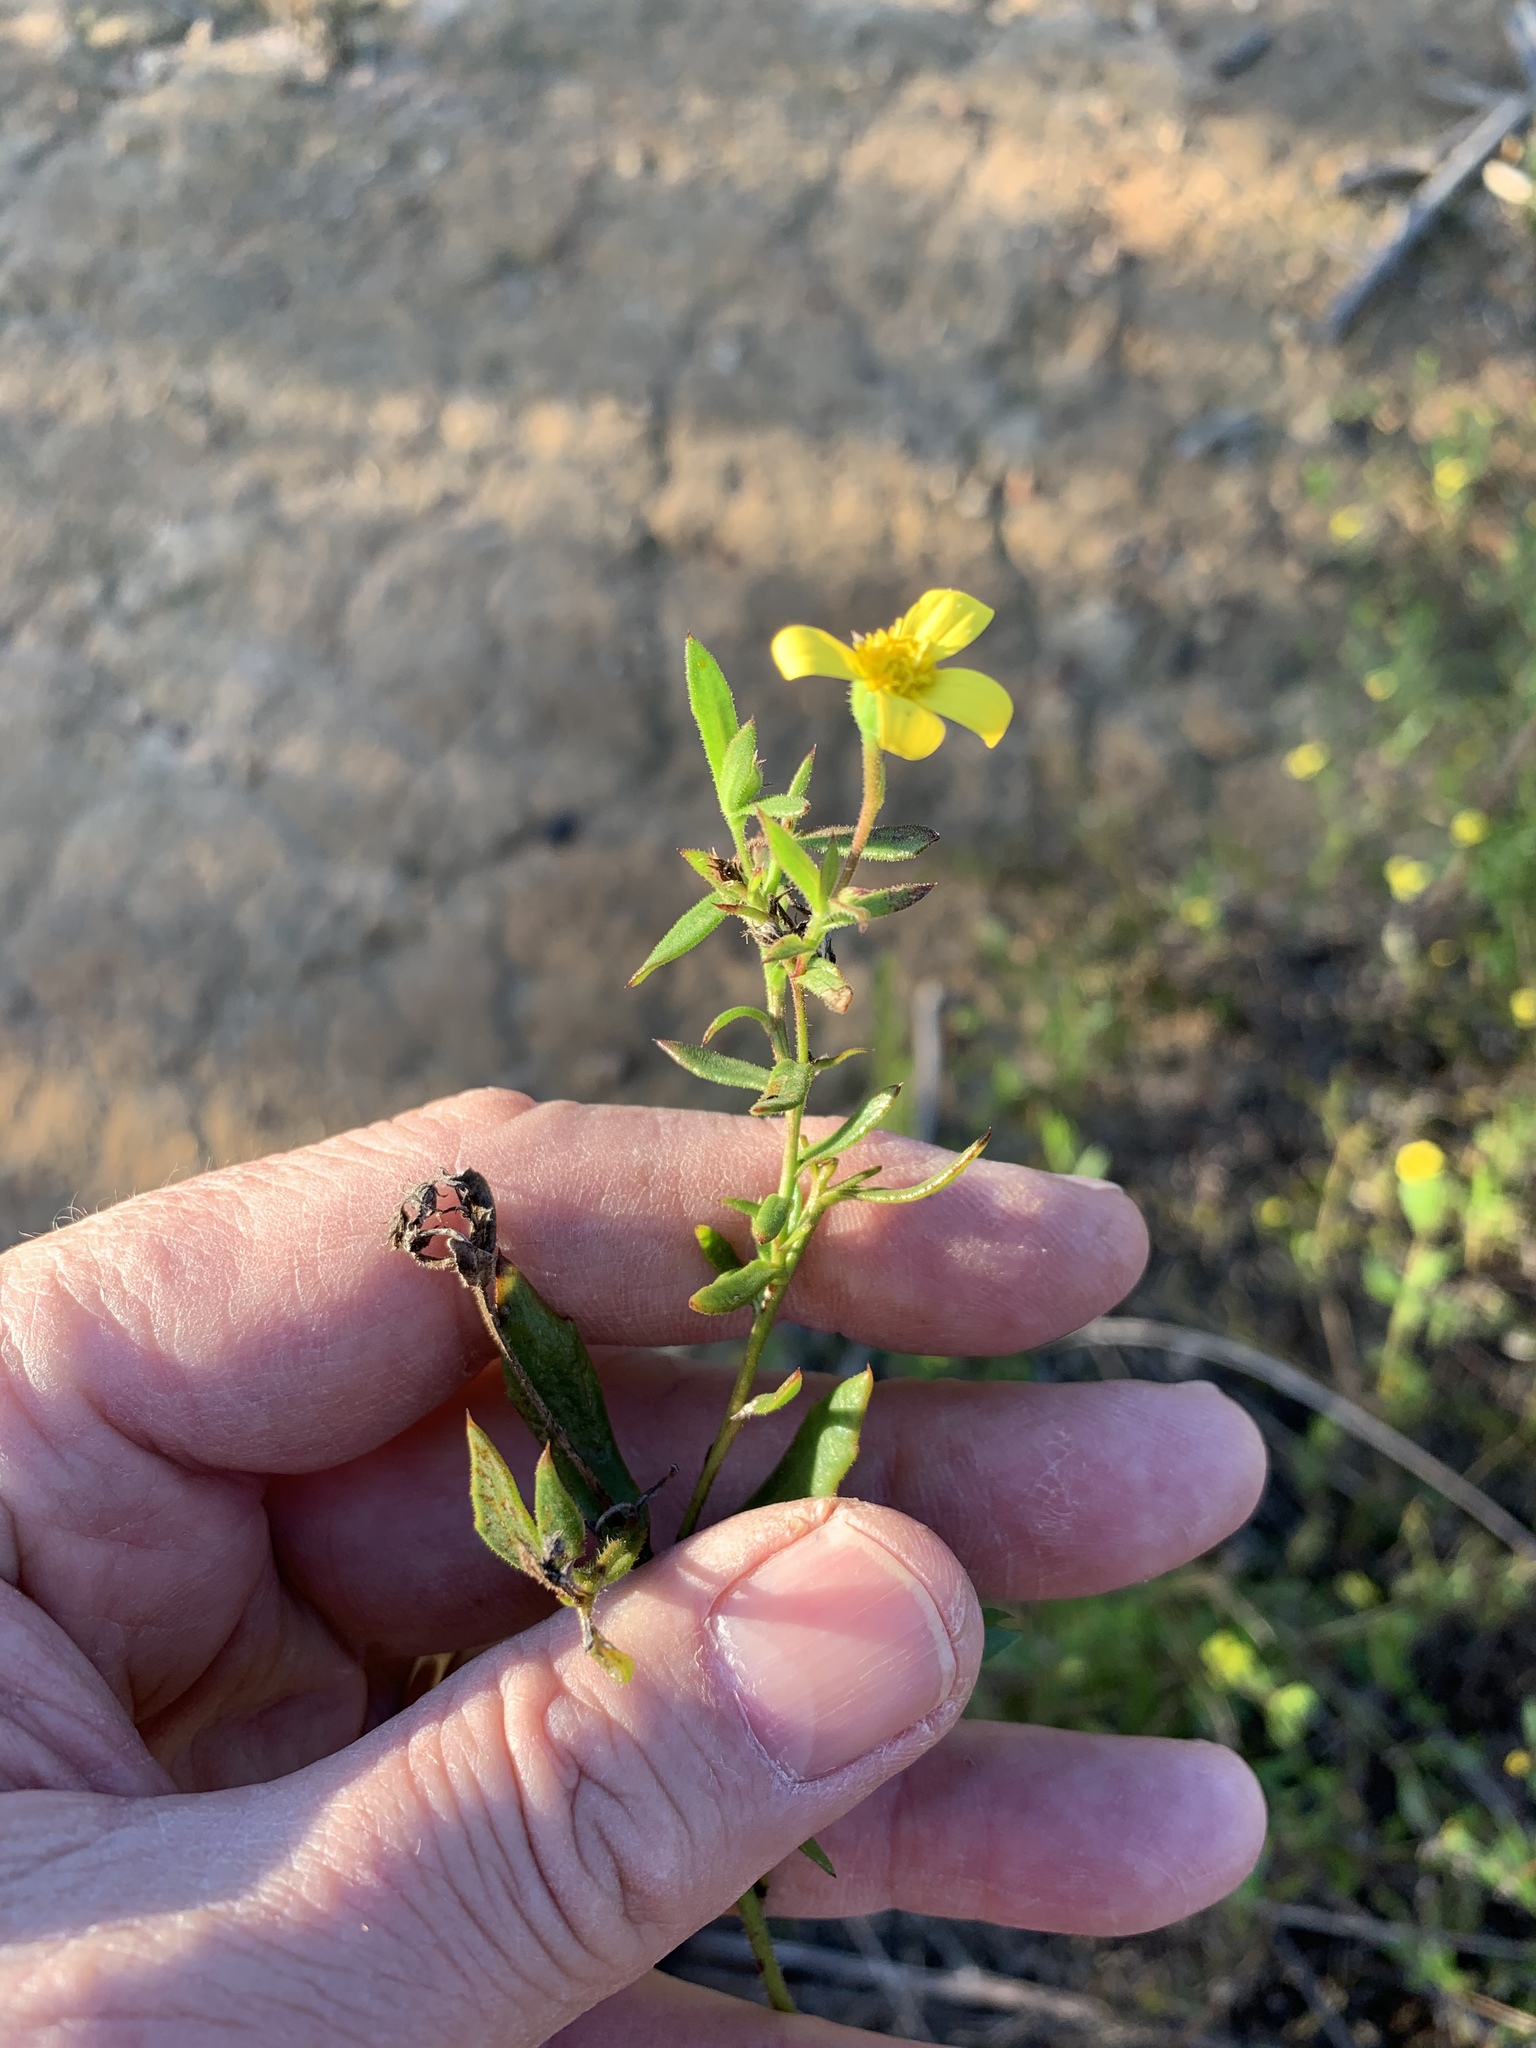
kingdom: Plantae
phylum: Tracheophyta
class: Magnoliopsida
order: Asterales
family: Asteraceae
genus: Osteospermum
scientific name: Osteospermum ciliatum
